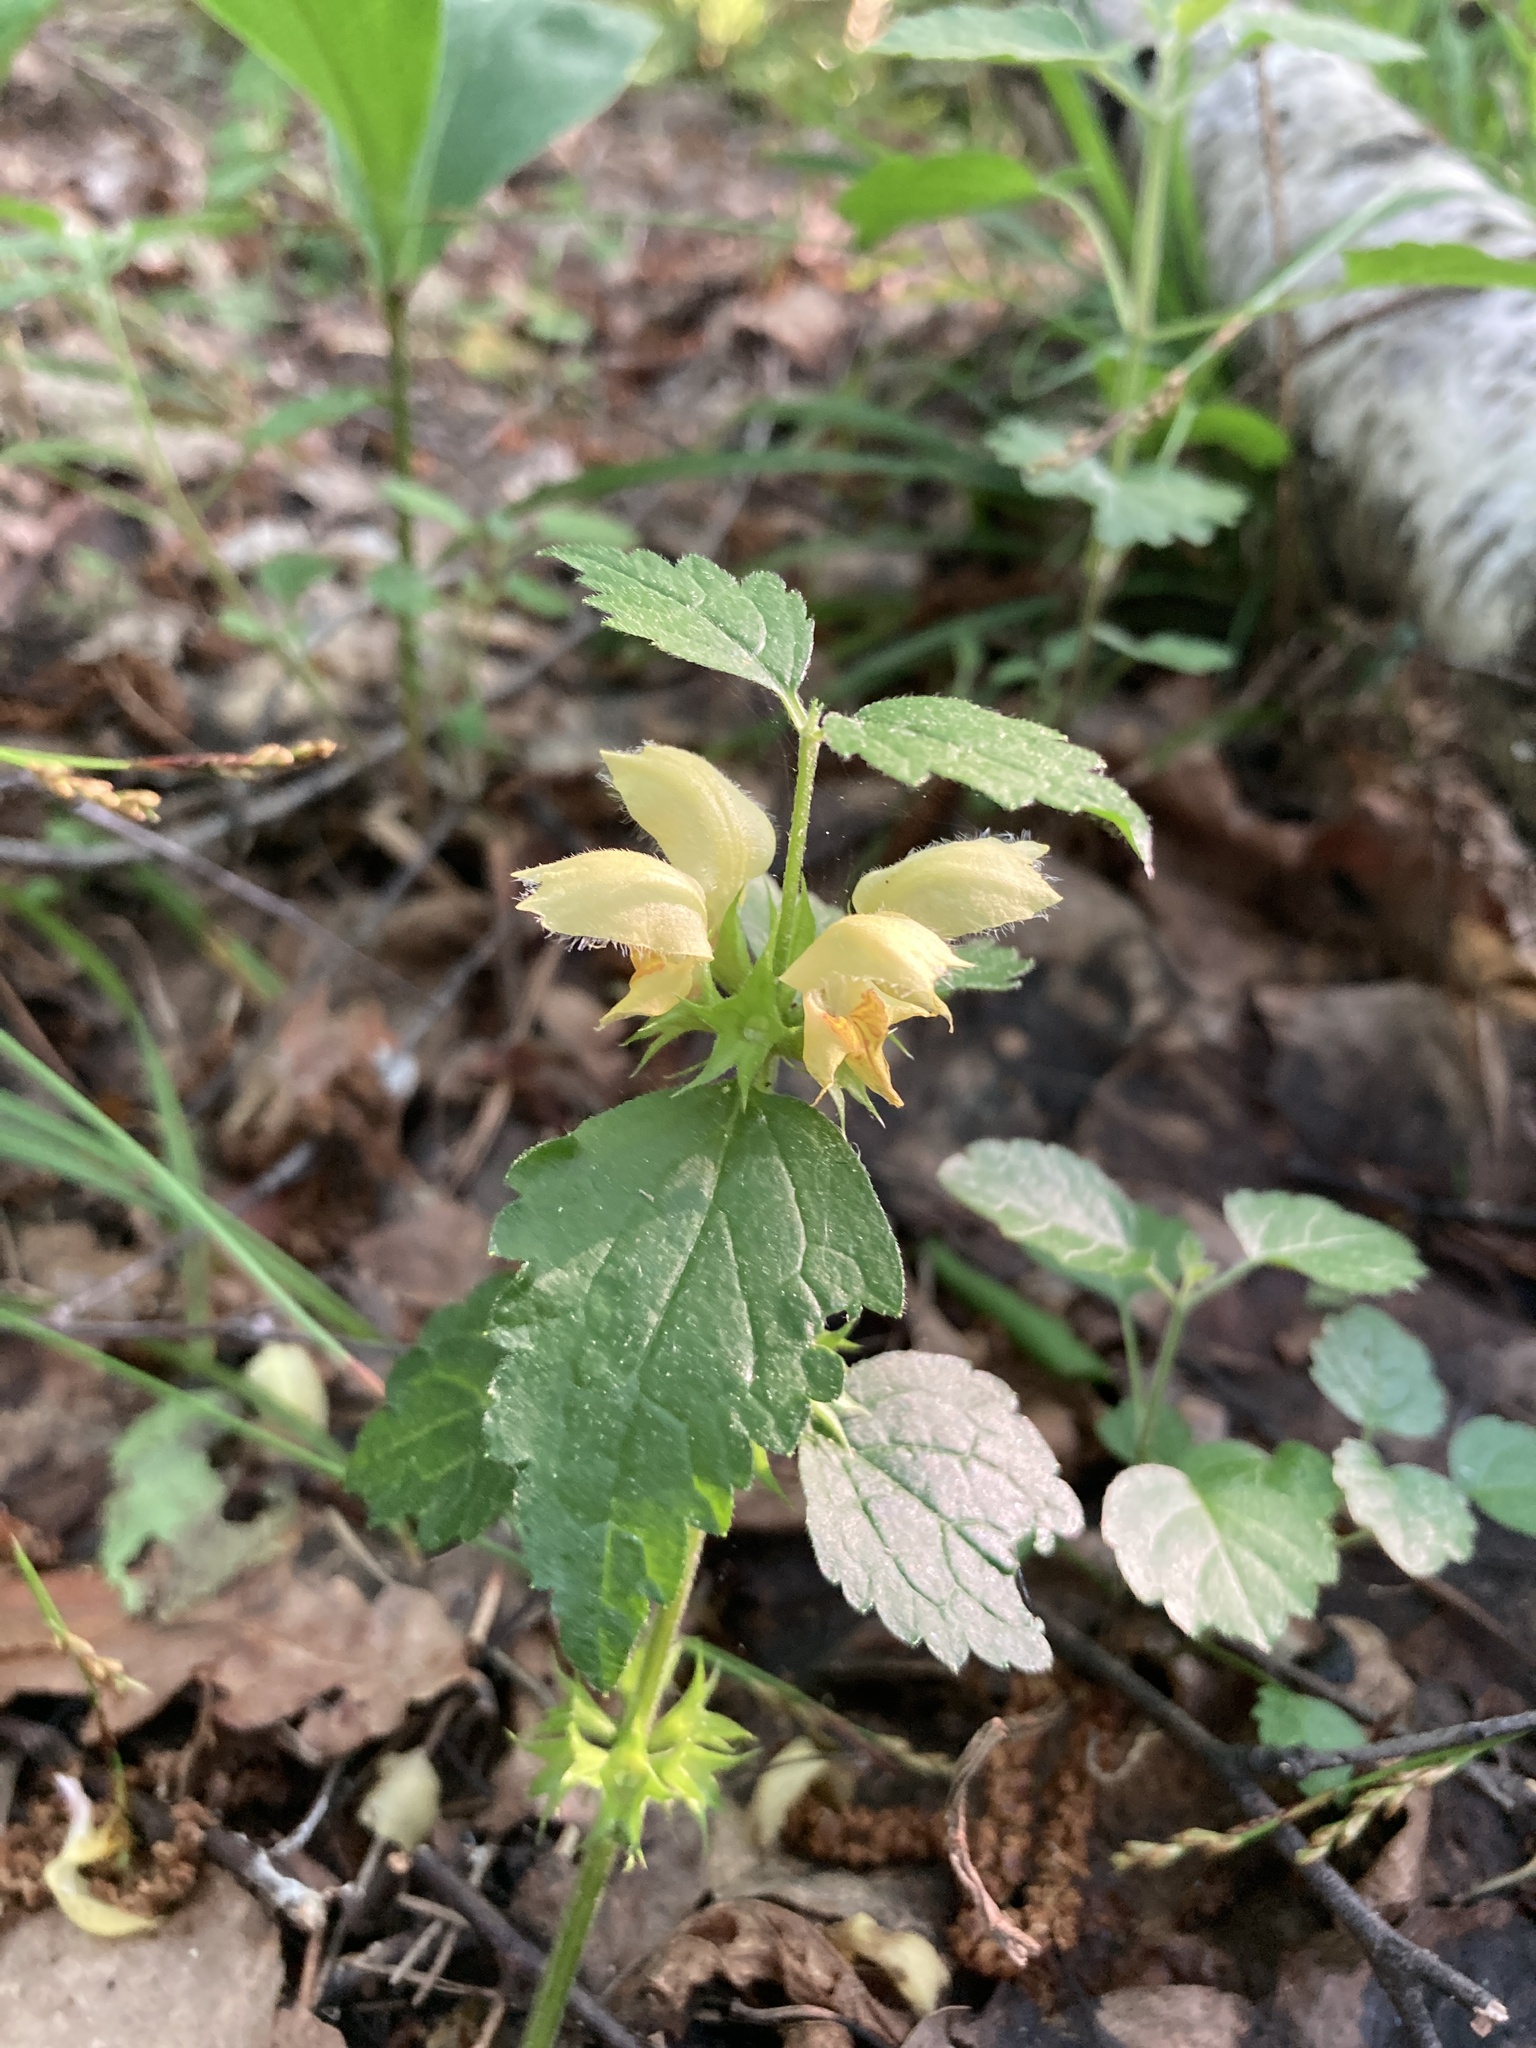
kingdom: Plantae
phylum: Tracheophyta
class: Magnoliopsida
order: Lamiales
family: Lamiaceae
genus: Lamium
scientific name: Lamium galeobdolon
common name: Yellow archangel
